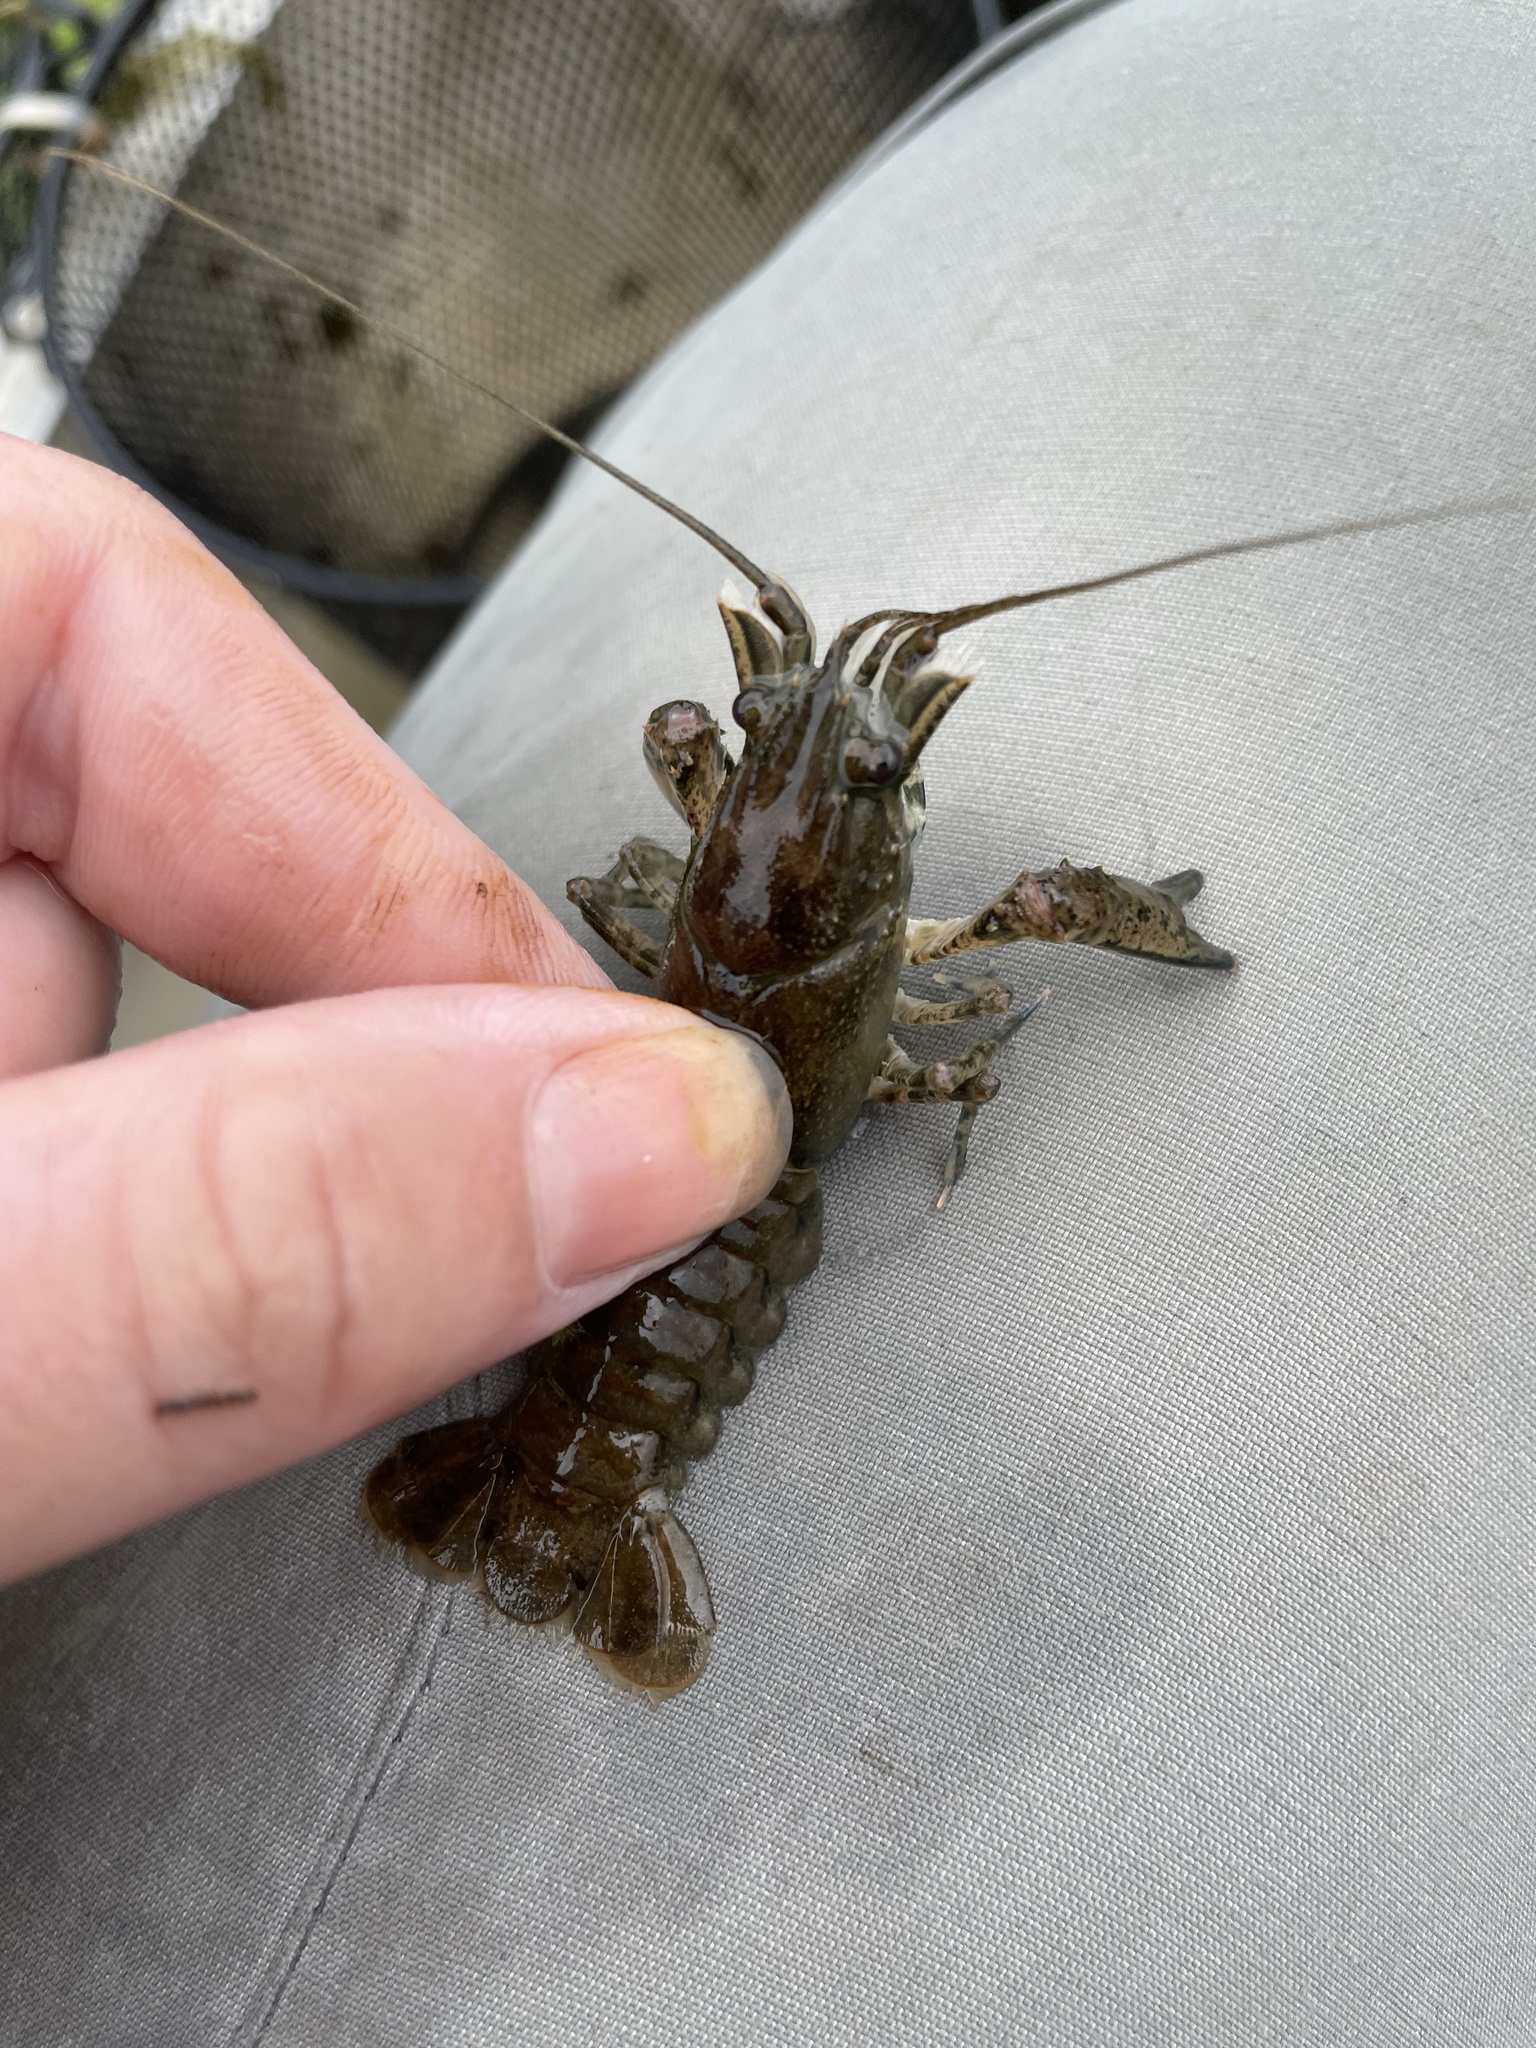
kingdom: Animalia
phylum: Arthropoda
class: Malacostraca
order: Decapoda
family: Cambaridae
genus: Faxonius
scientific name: Faxonius limosus
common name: American crayfish
